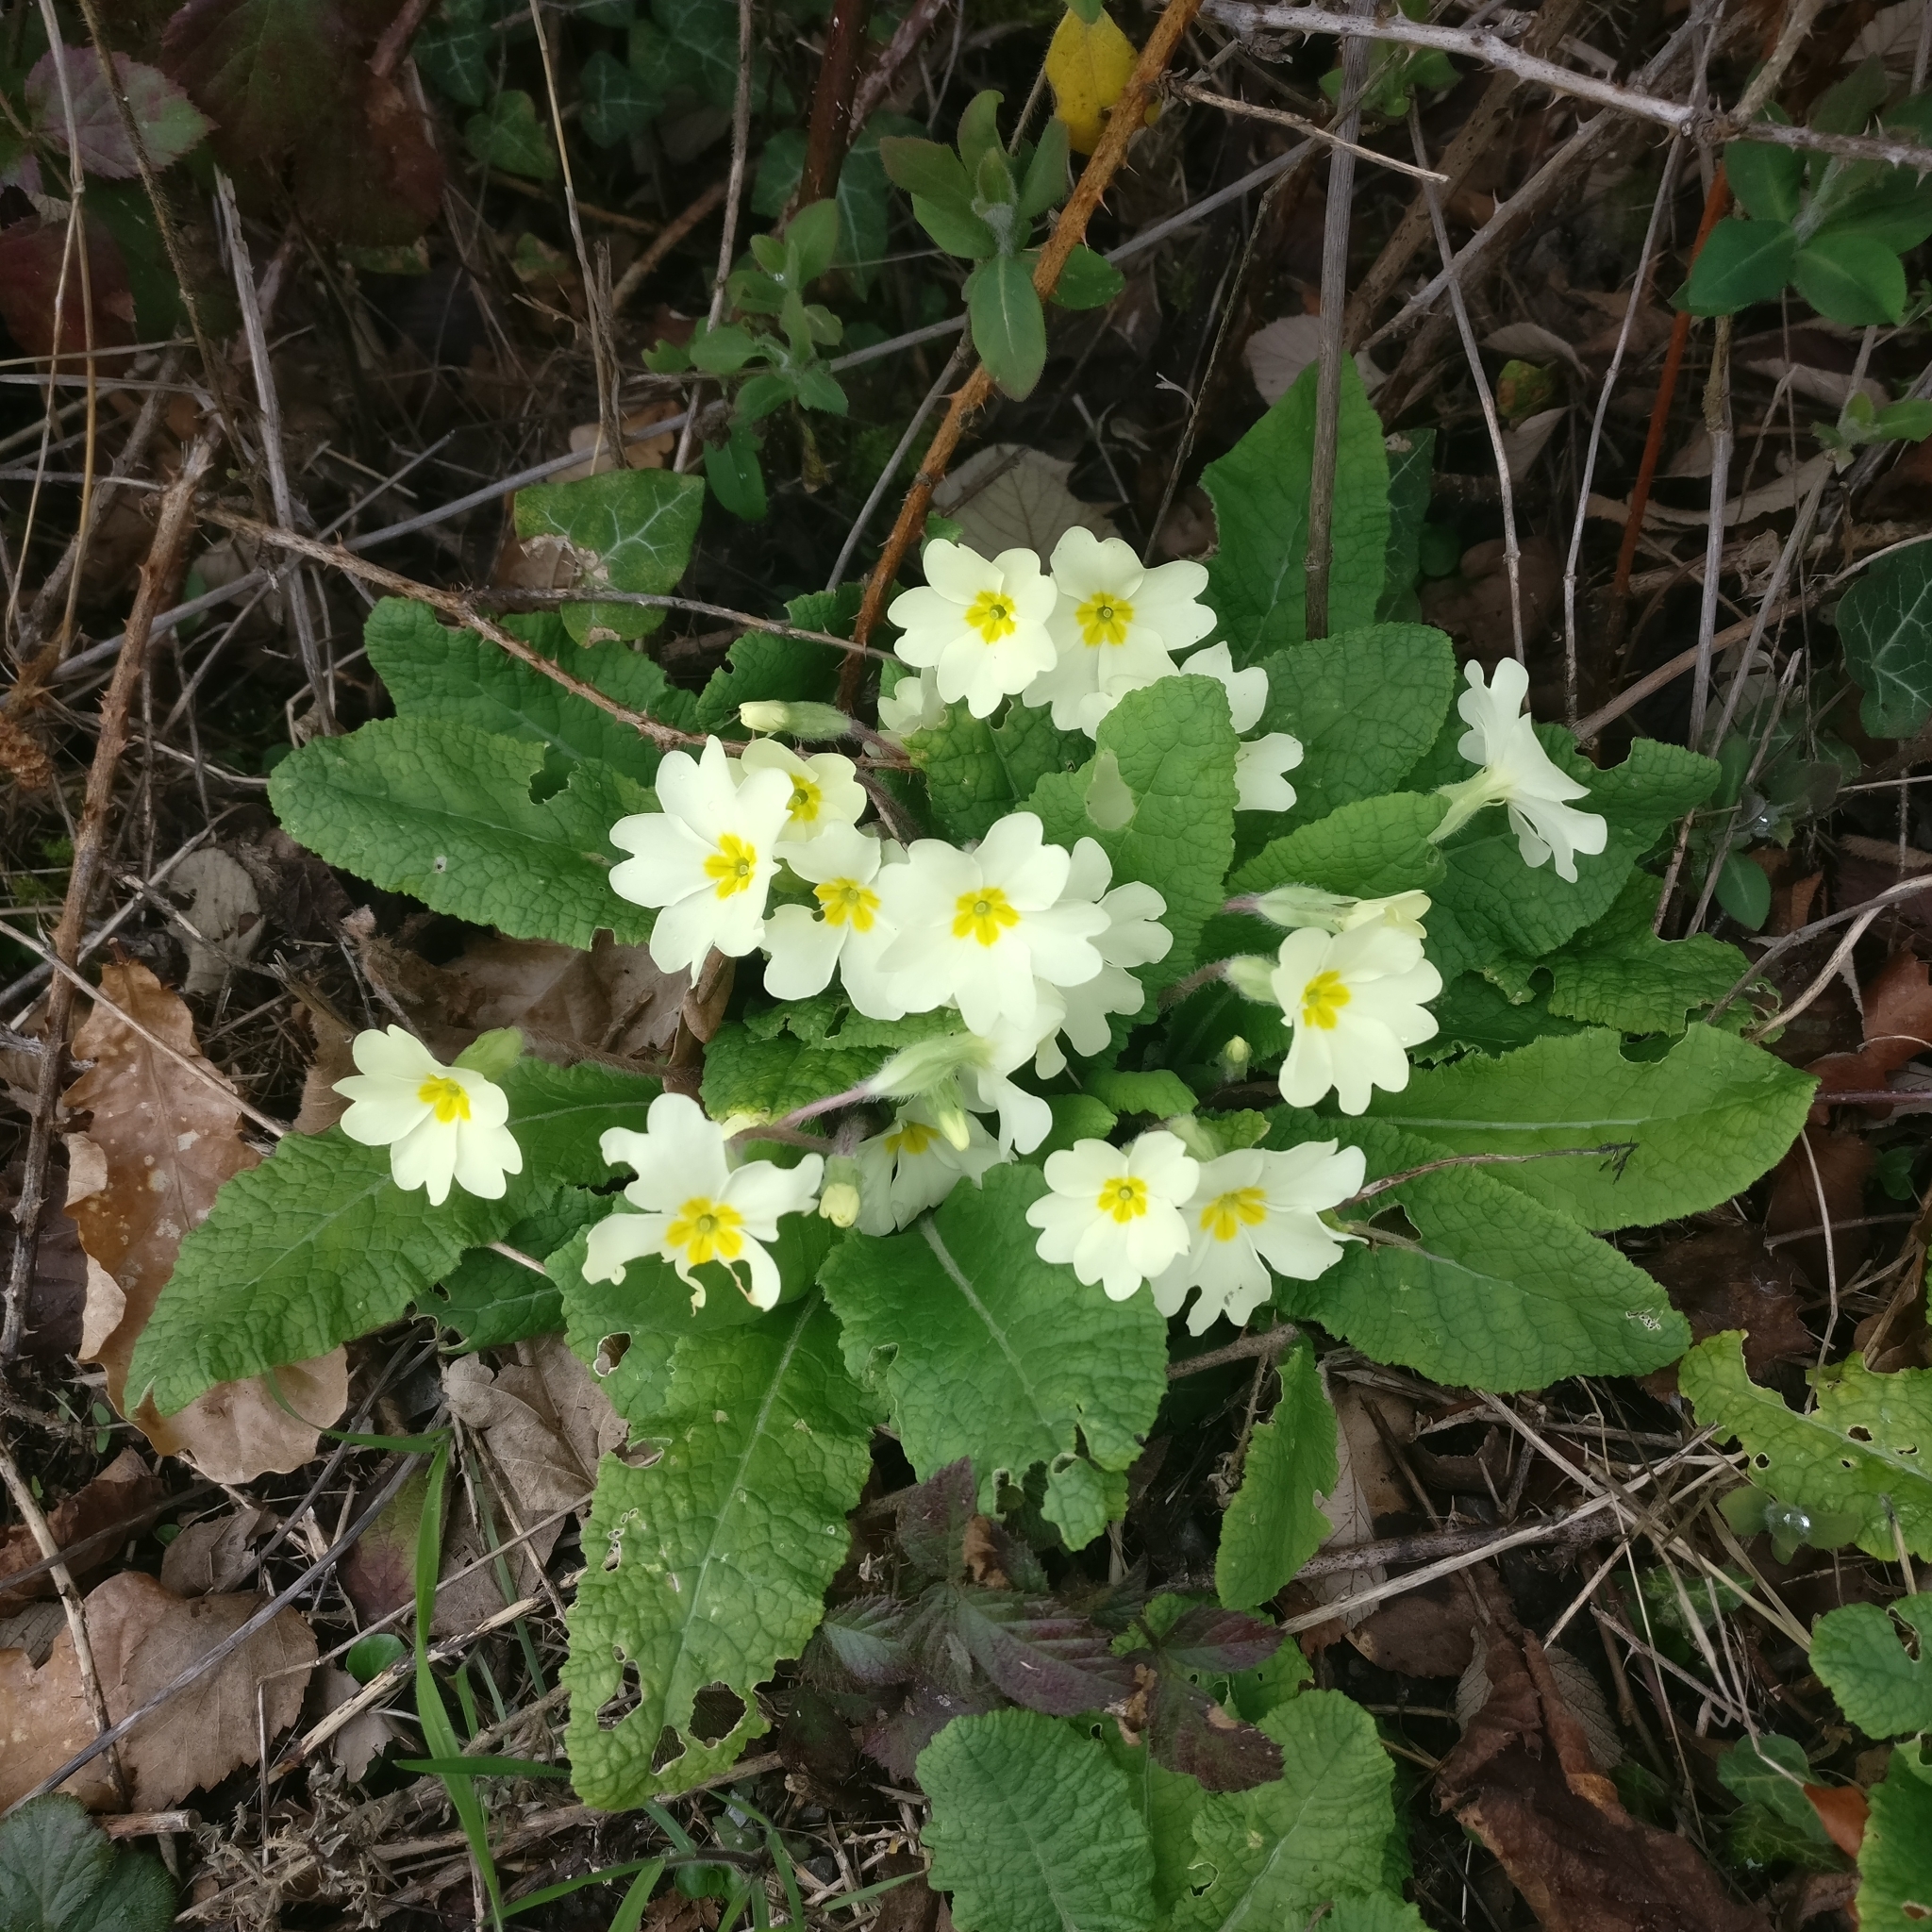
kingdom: Plantae
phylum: Tracheophyta
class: Magnoliopsida
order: Ericales
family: Primulaceae
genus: Primula
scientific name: Primula vulgaris
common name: Primrose
